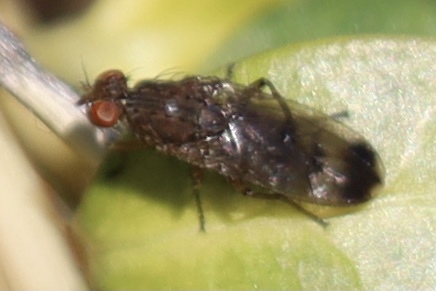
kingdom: Animalia
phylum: Arthropoda
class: Insecta
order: Diptera
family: Heleomyzidae
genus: Suillia
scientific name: Suillia variegata
